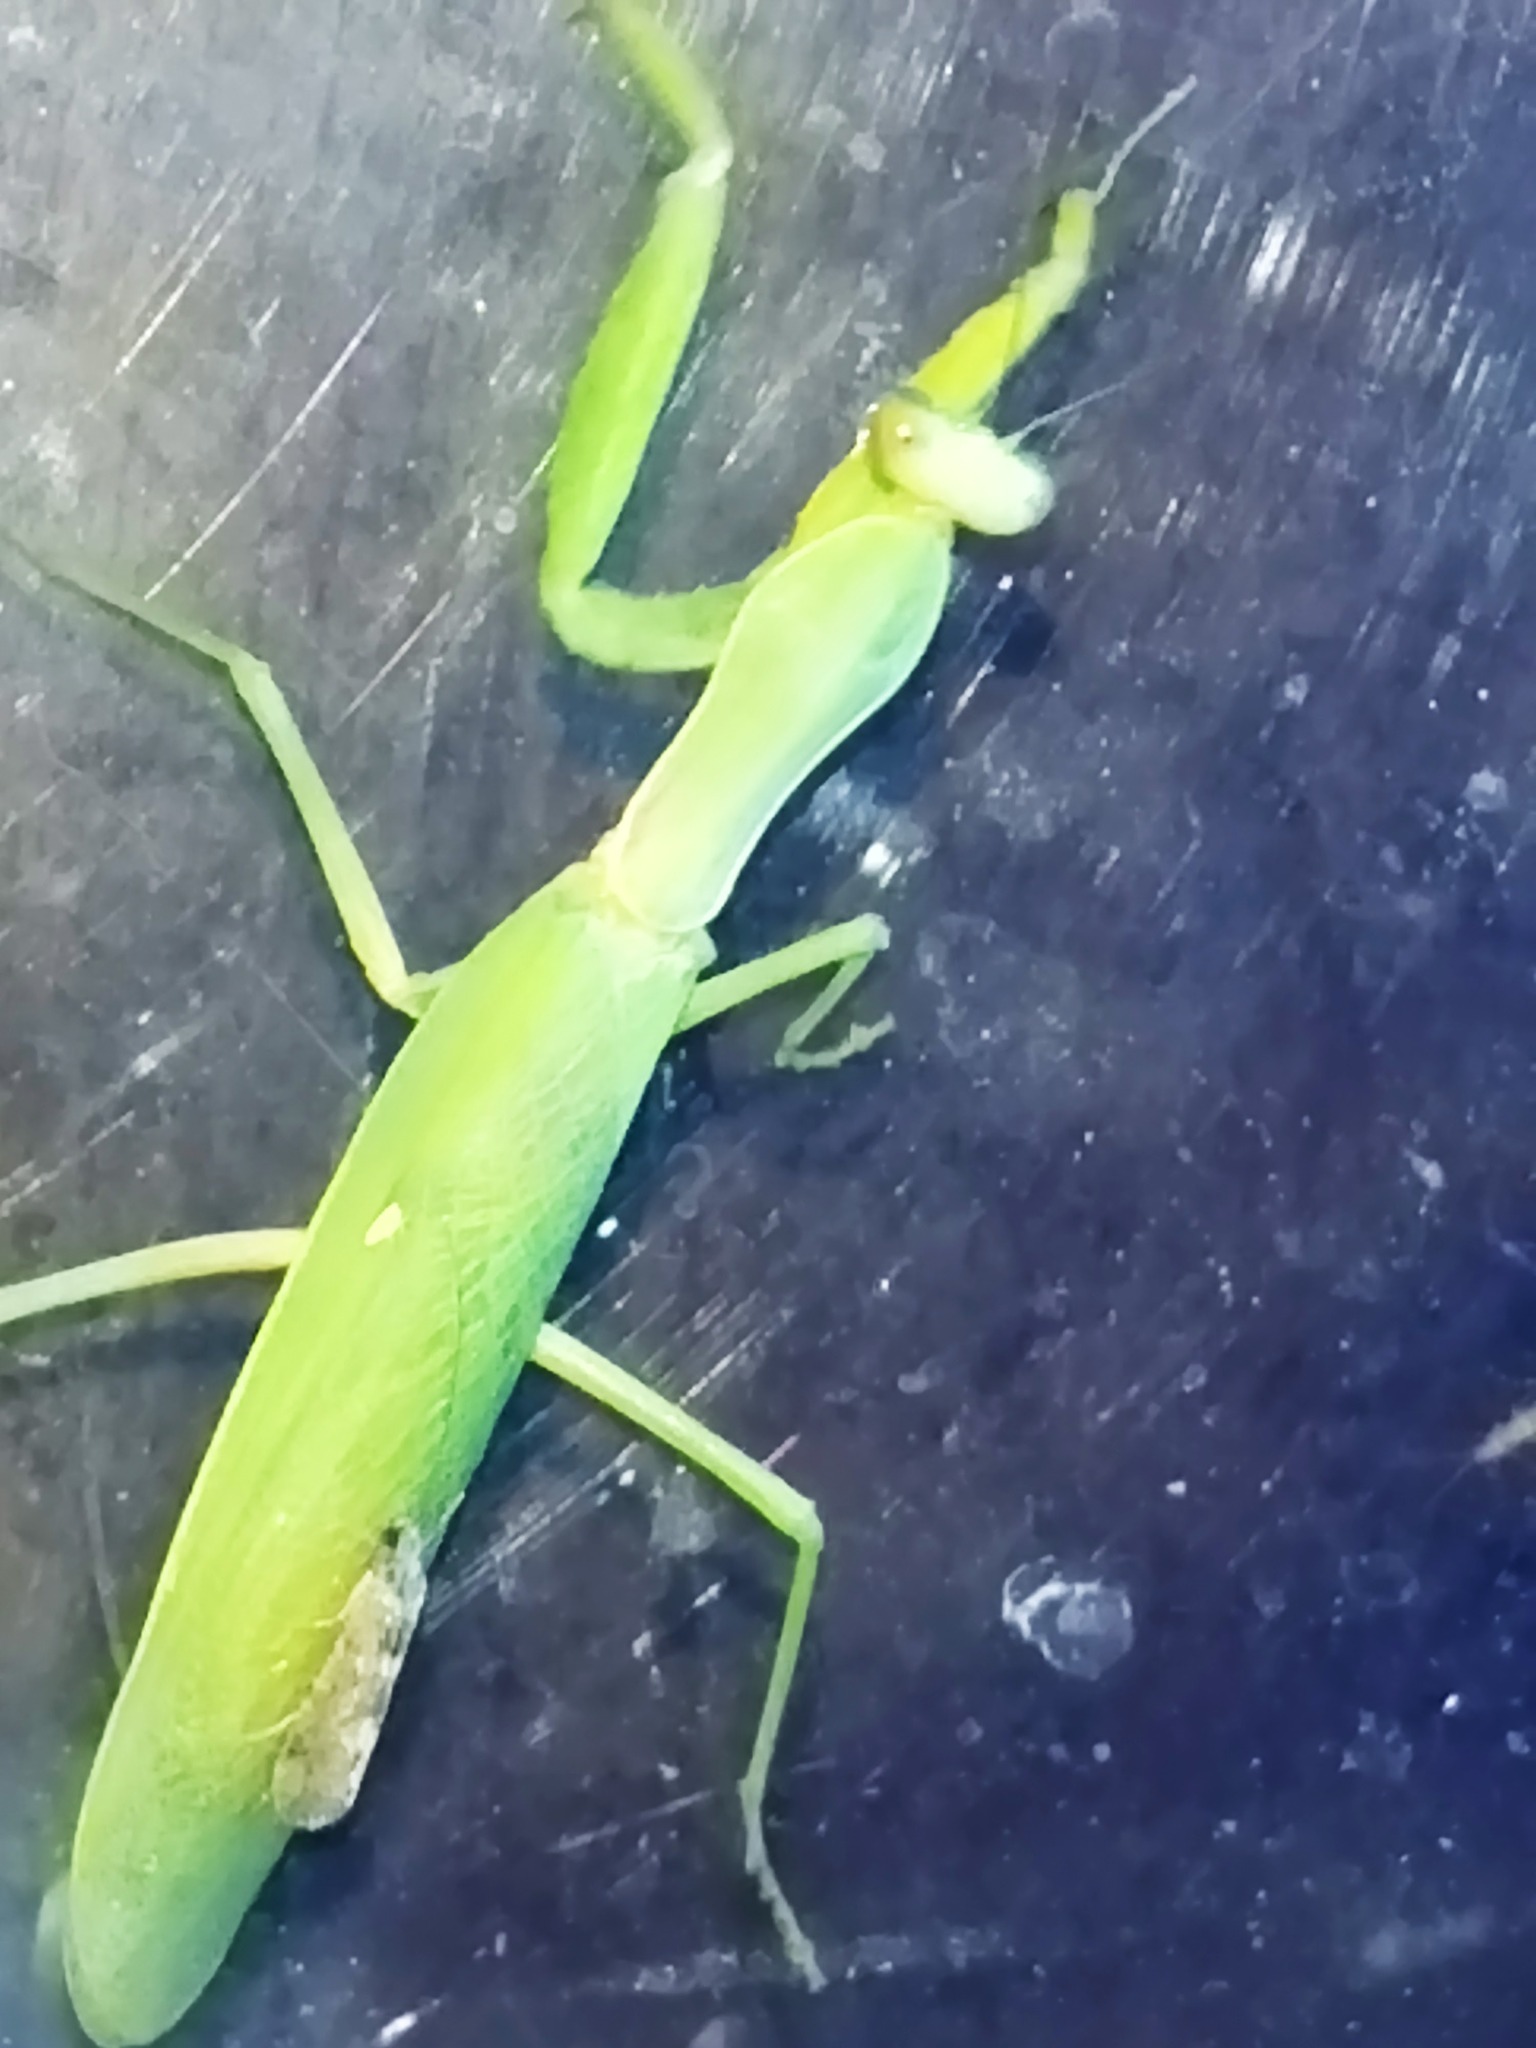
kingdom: Animalia
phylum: Arthropoda
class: Insecta
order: Mantodea
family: Mantidae
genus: Hierodula
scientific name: Hierodula transcaucasica
